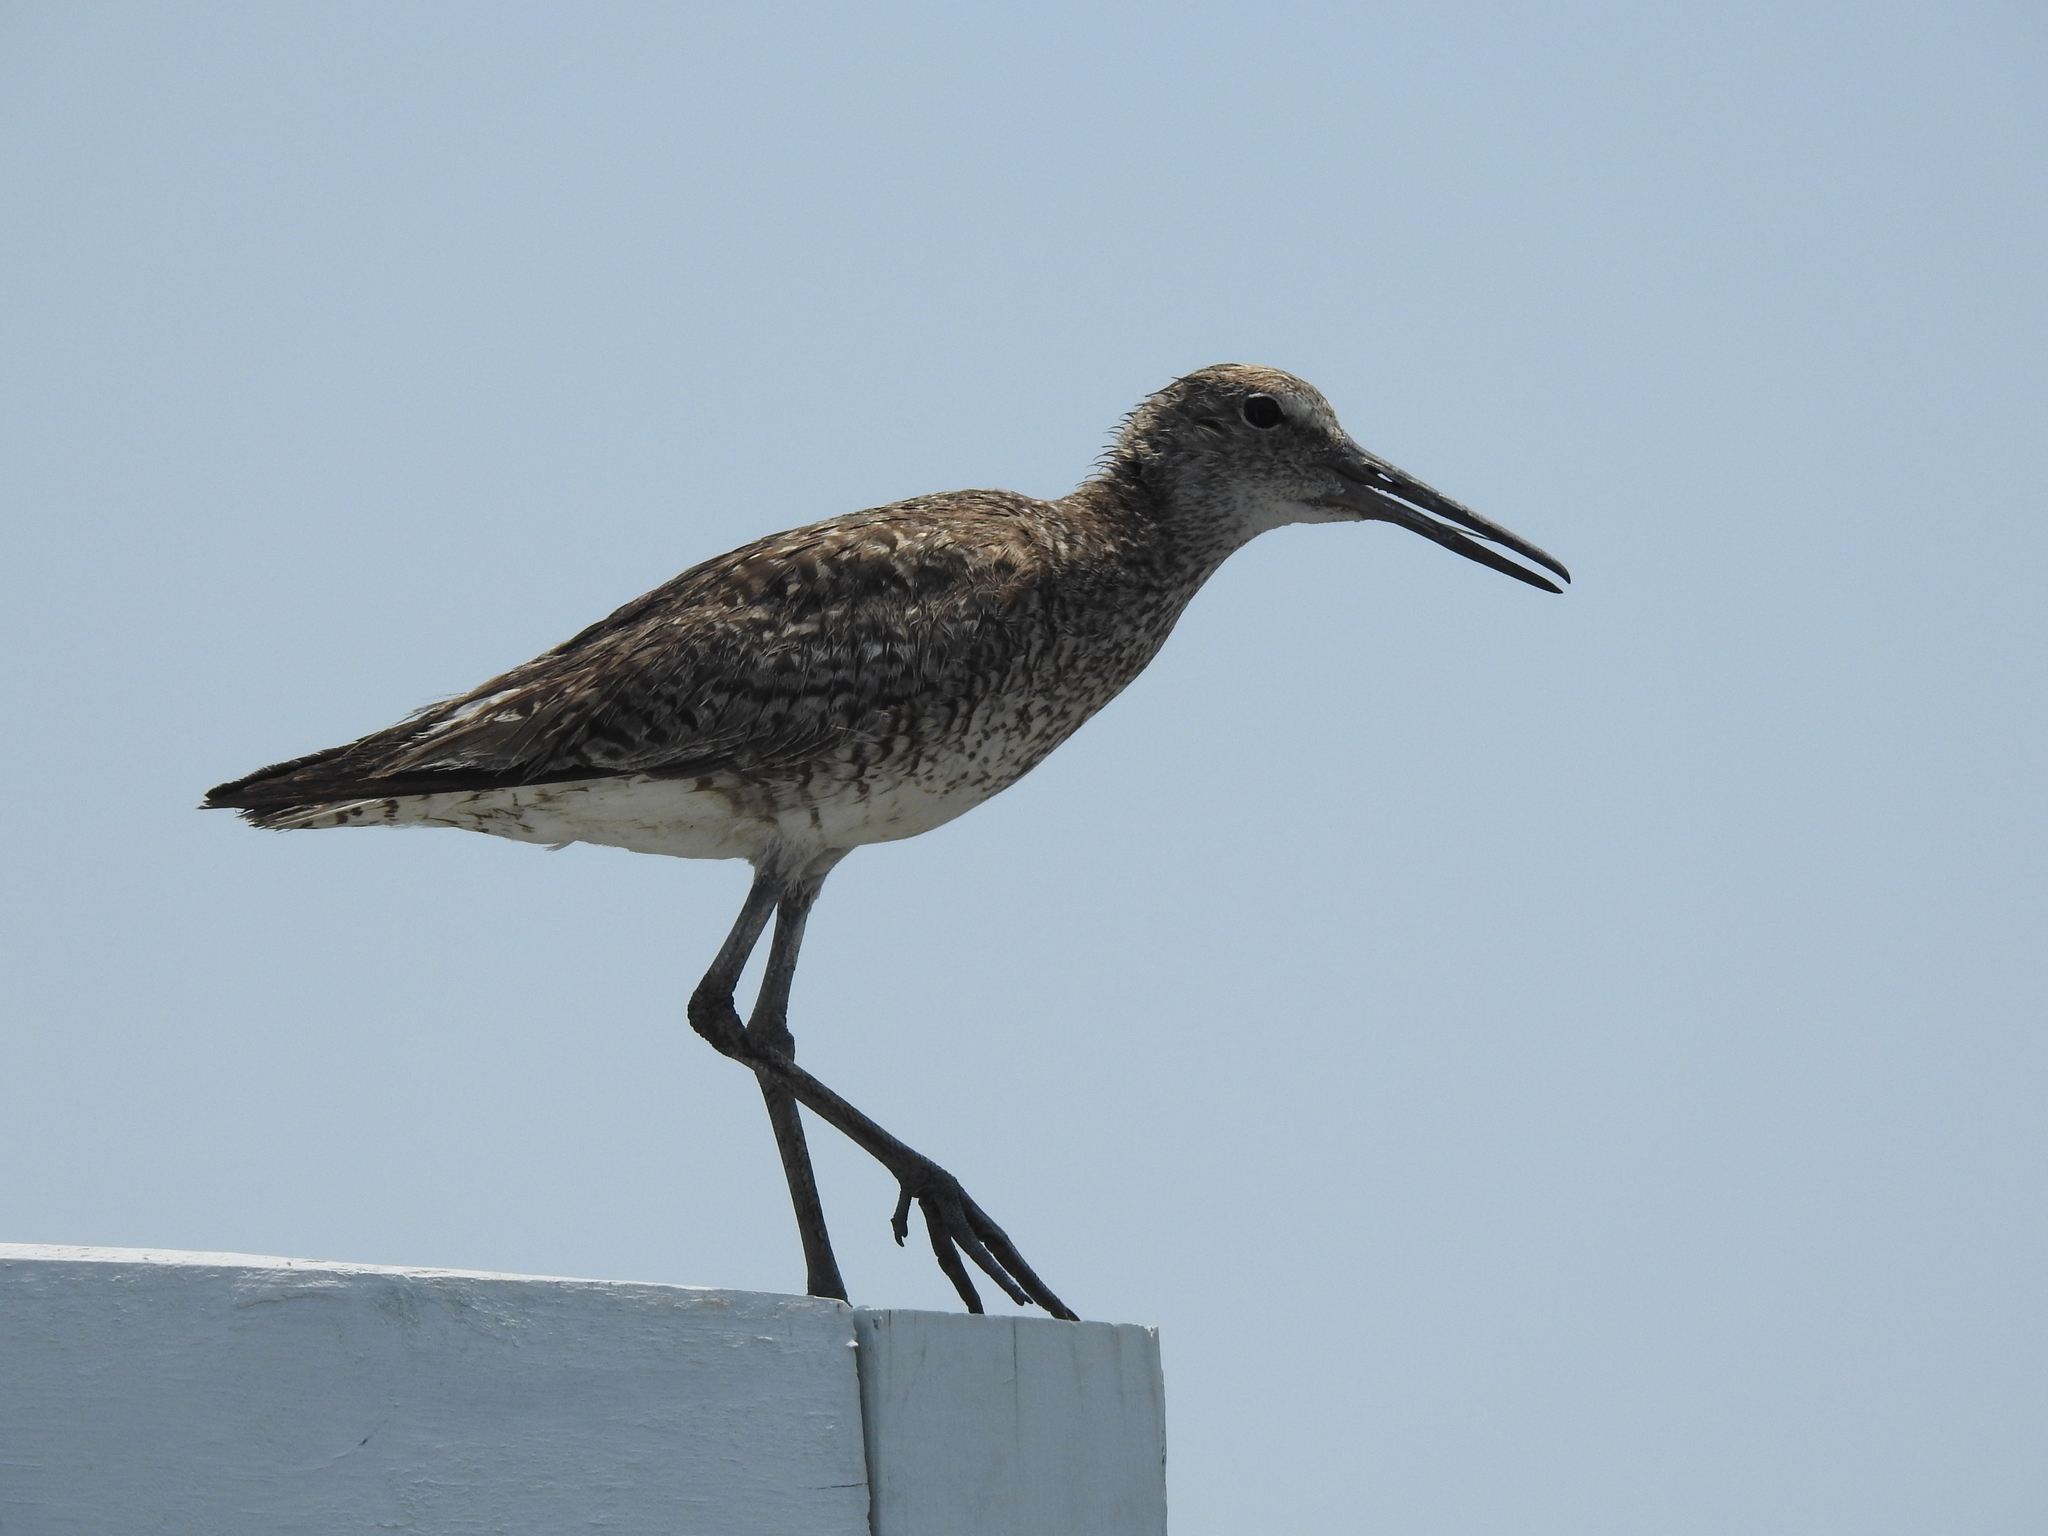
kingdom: Animalia
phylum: Chordata
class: Aves
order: Charadriiformes
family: Scolopacidae
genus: Tringa
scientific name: Tringa semipalmata
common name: Willet
